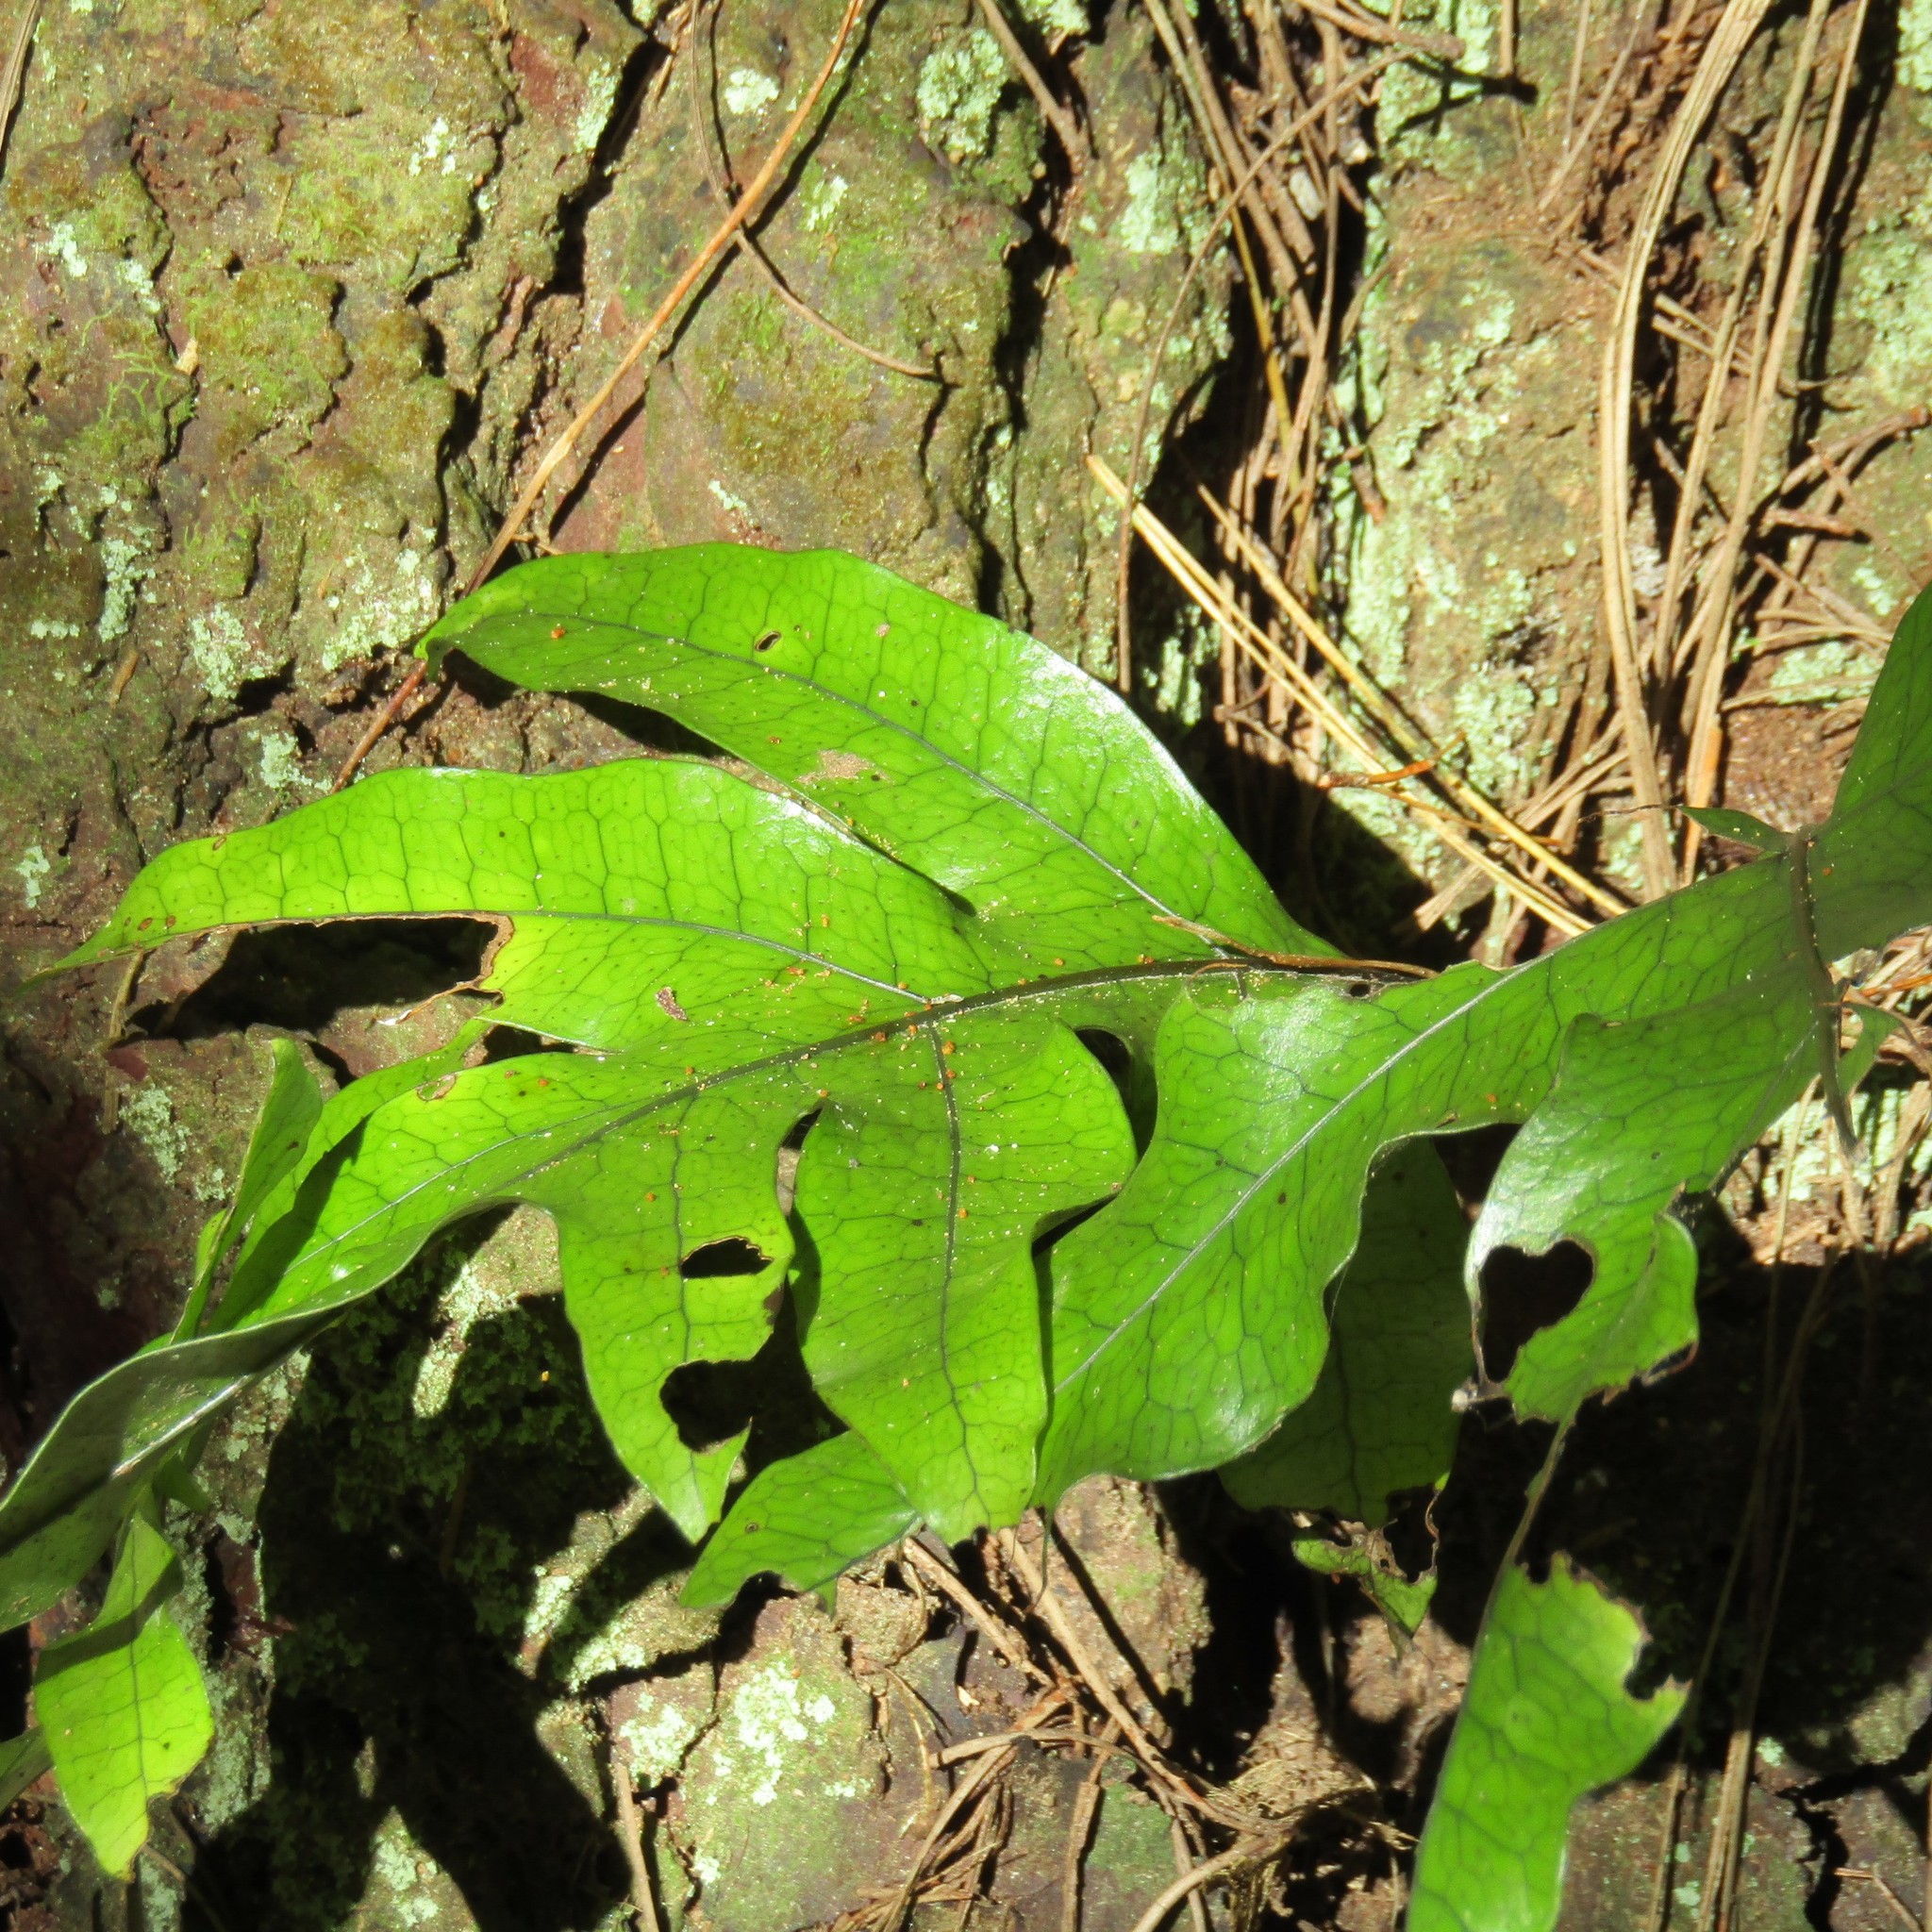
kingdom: Plantae
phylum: Tracheophyta
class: Polypodiopsida
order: Polypodiales
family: Polypodiaceae
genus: Lecanopteris
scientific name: Lecanopteris pustulata
